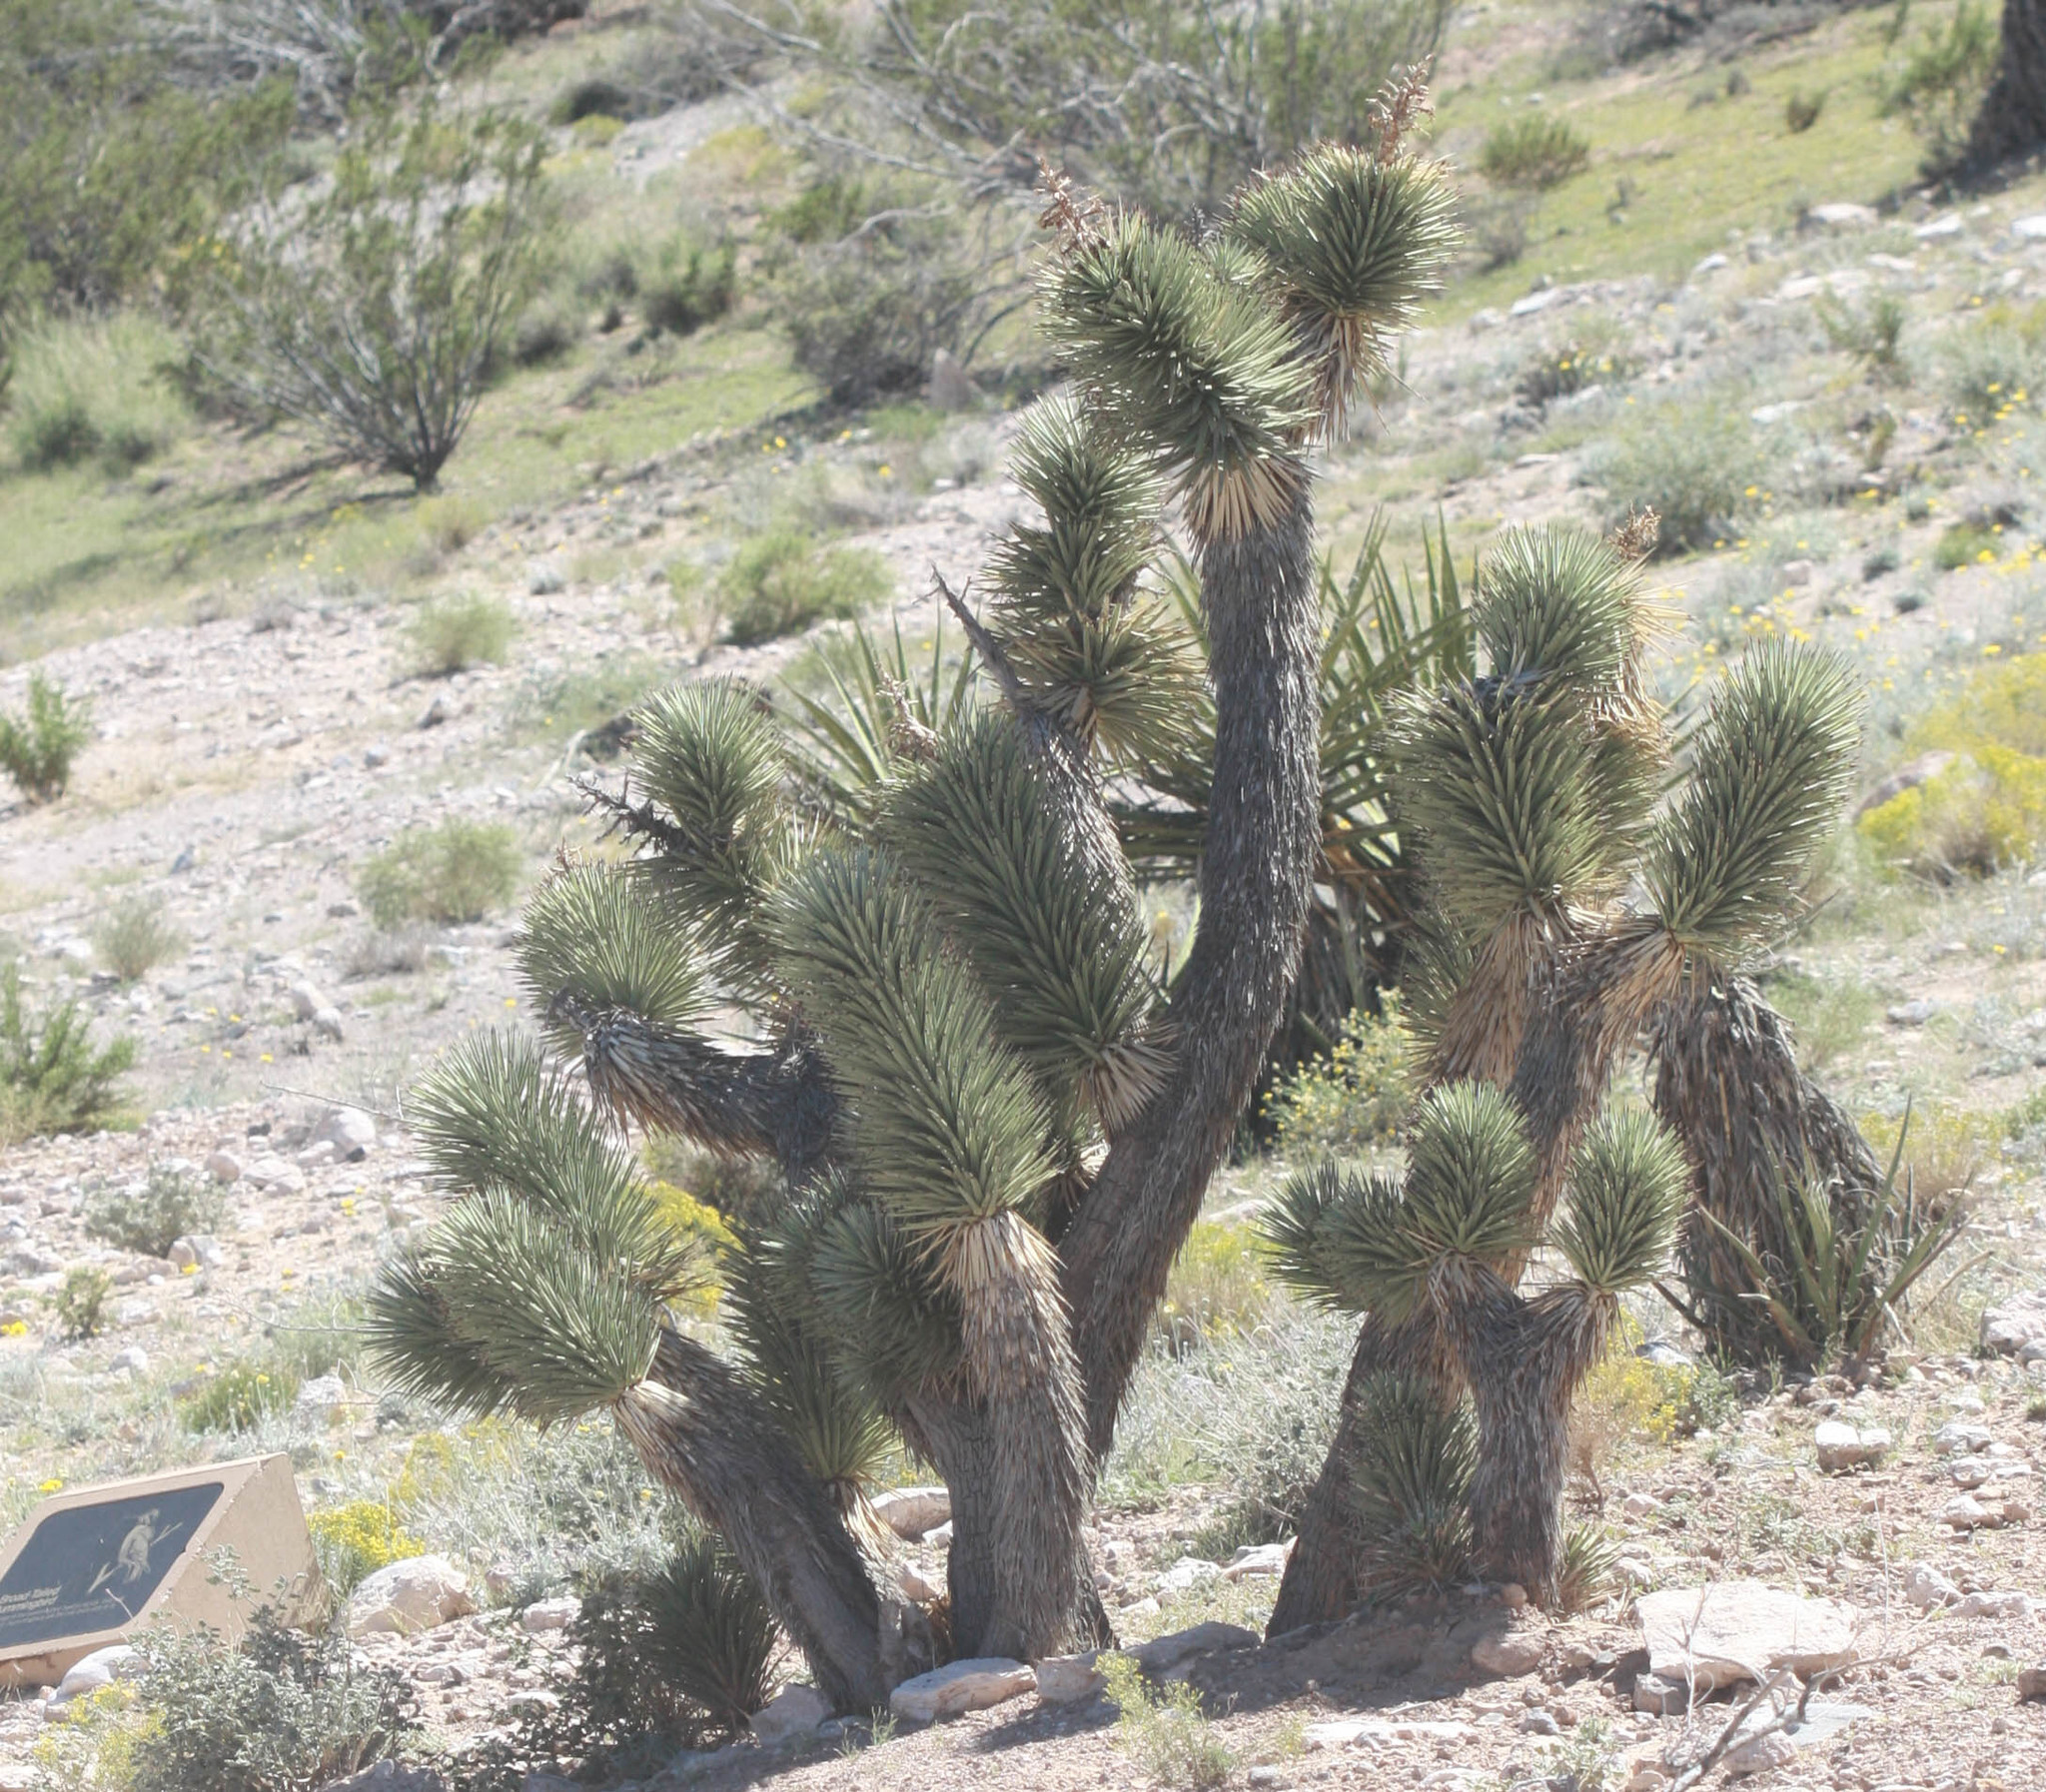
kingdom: Plantae
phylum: Tracheophyta
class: Liliopsida
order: Asparagales
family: Asparagaceae
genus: Yucca
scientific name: Yucca brevifolia
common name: Joshua tree
